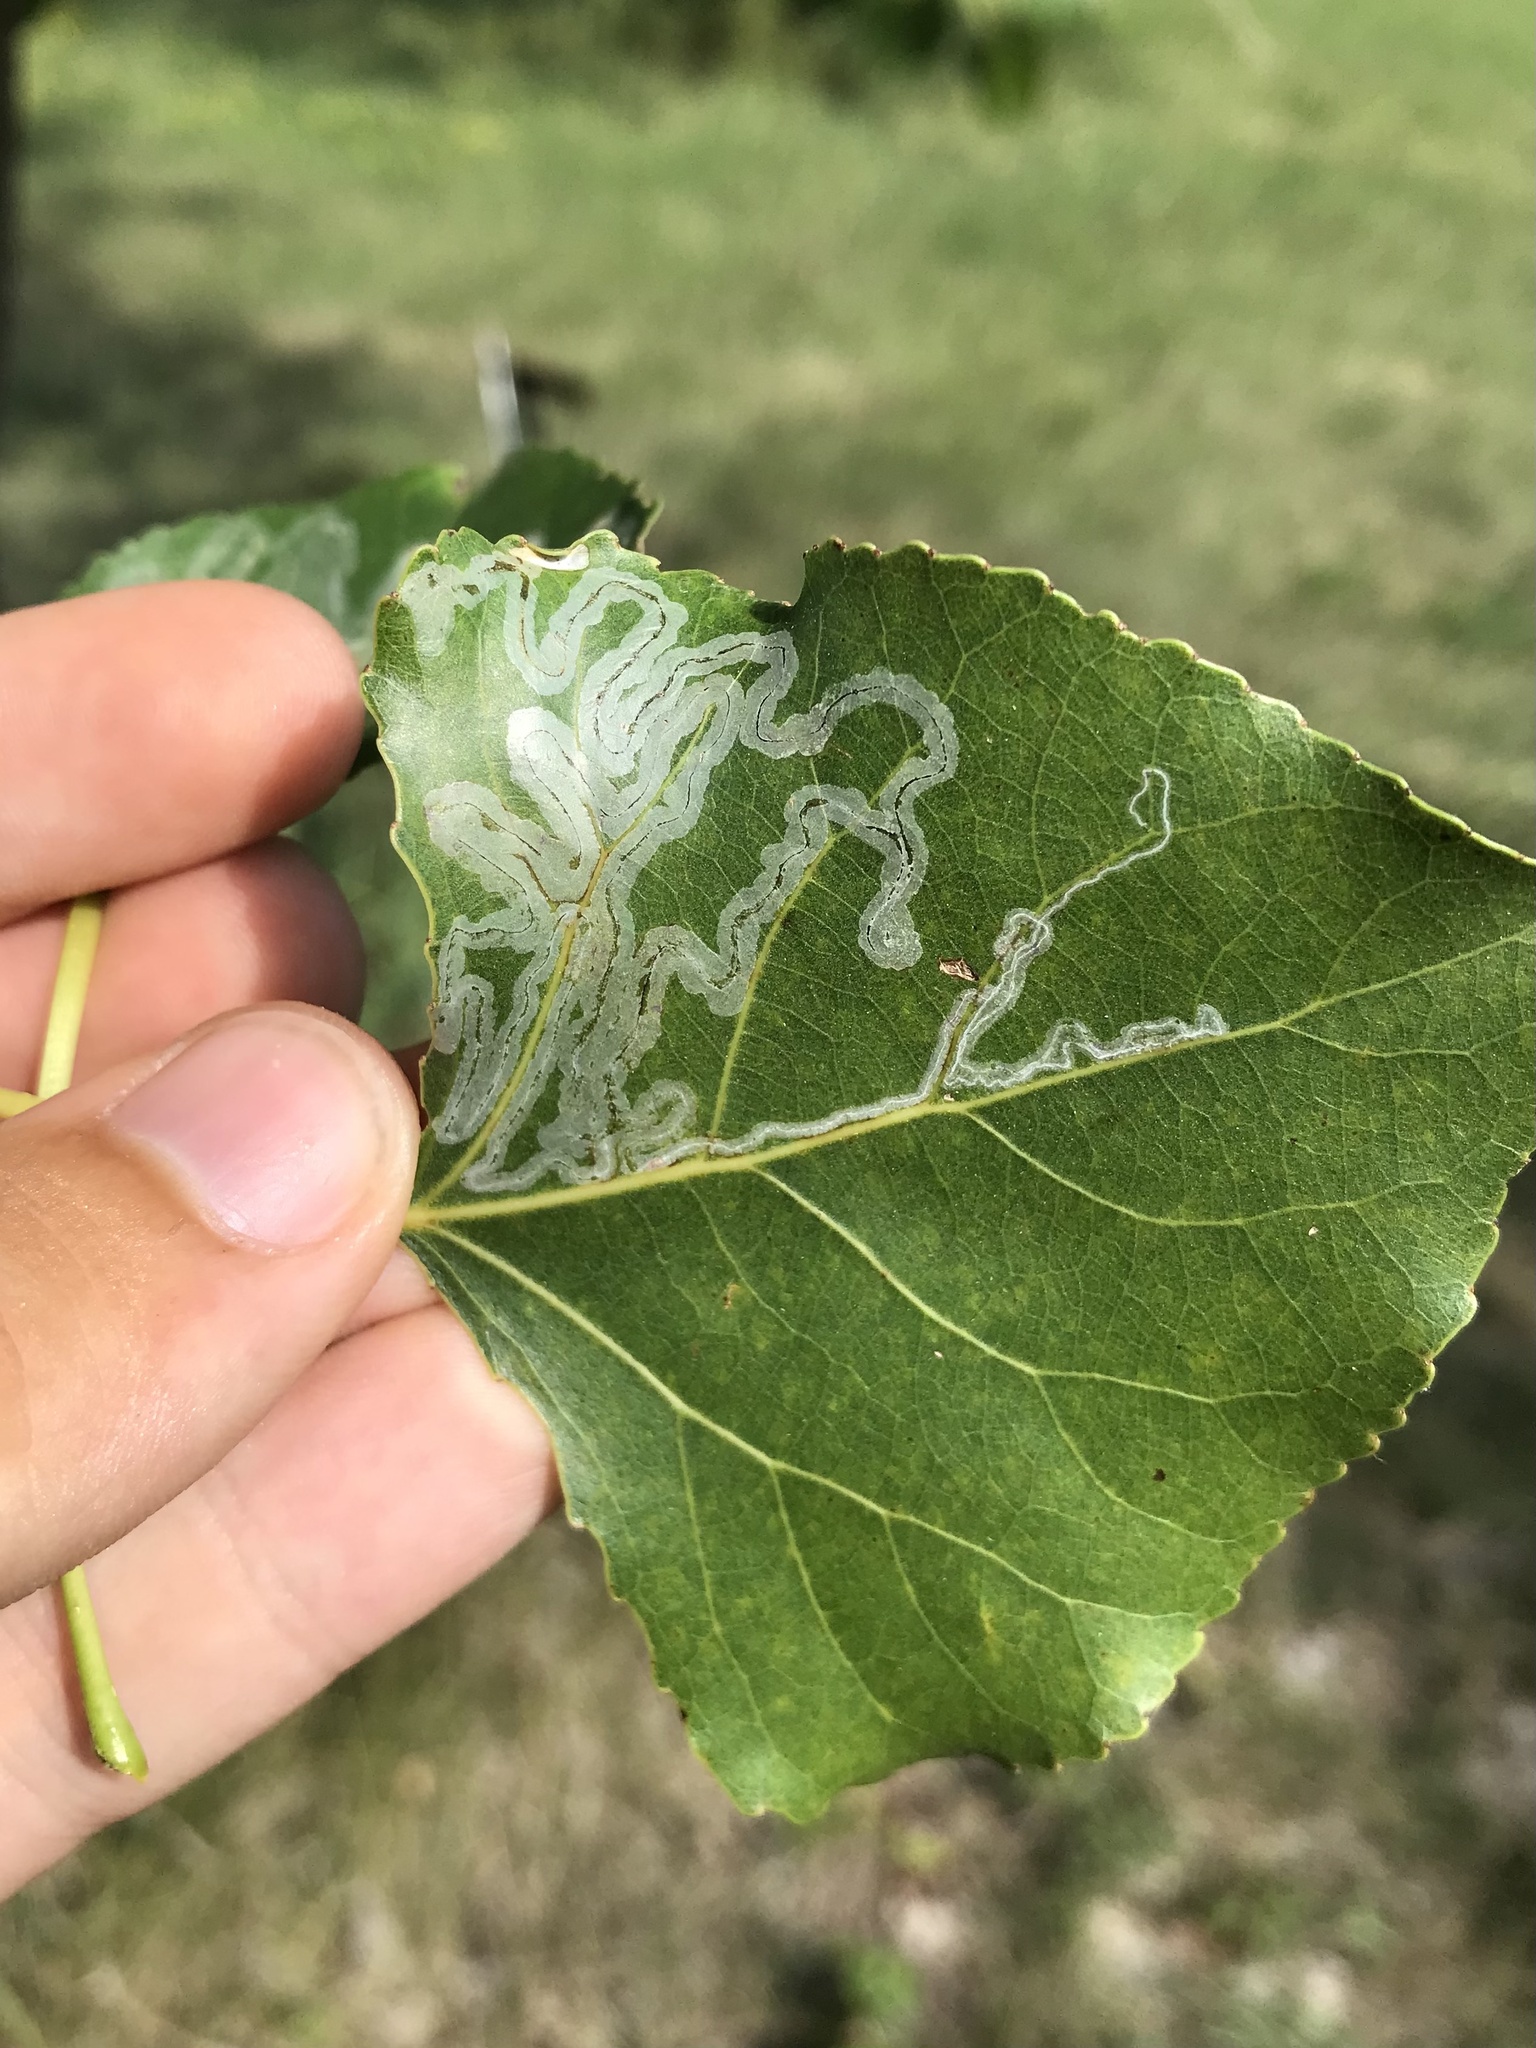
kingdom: Animalia
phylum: Arthropoda
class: Insecta
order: Lepidoptera
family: Gracillariidae
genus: Phyllocnistis
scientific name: Phyllocnistis populiella
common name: Aspen serpentine leafminer moth
